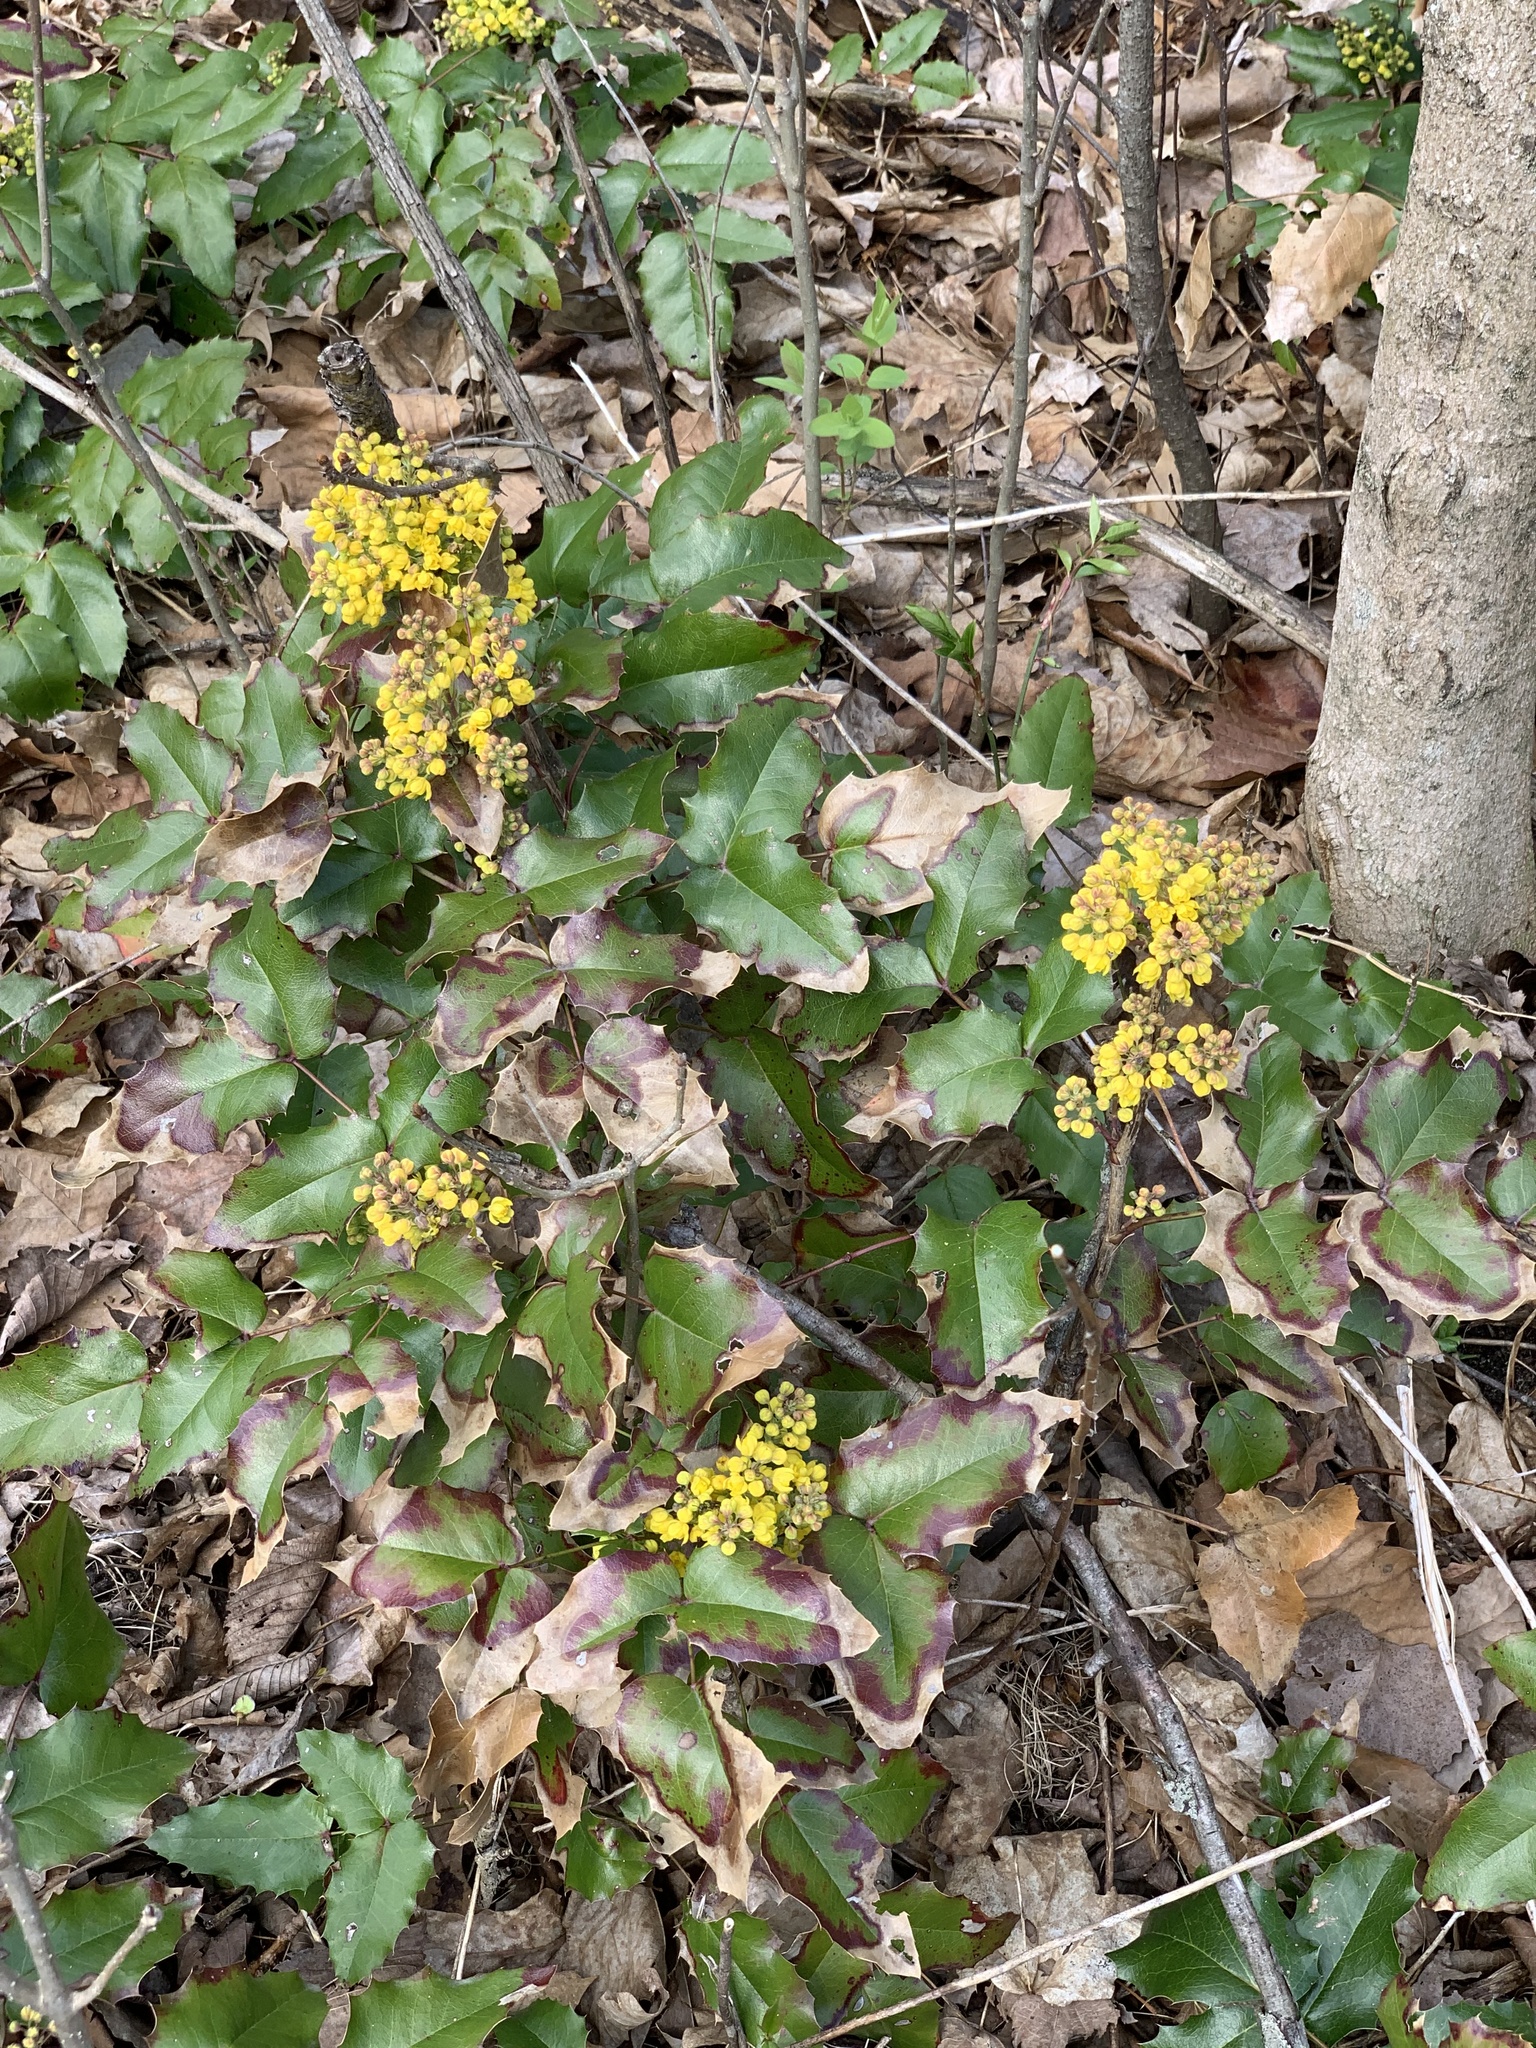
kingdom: Plantae
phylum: Tracheophyta
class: Magnoliopsida
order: Ranunculales
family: Berberidaceae
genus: Mahonia
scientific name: Mahonia aquifolium
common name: Oregon-grape
